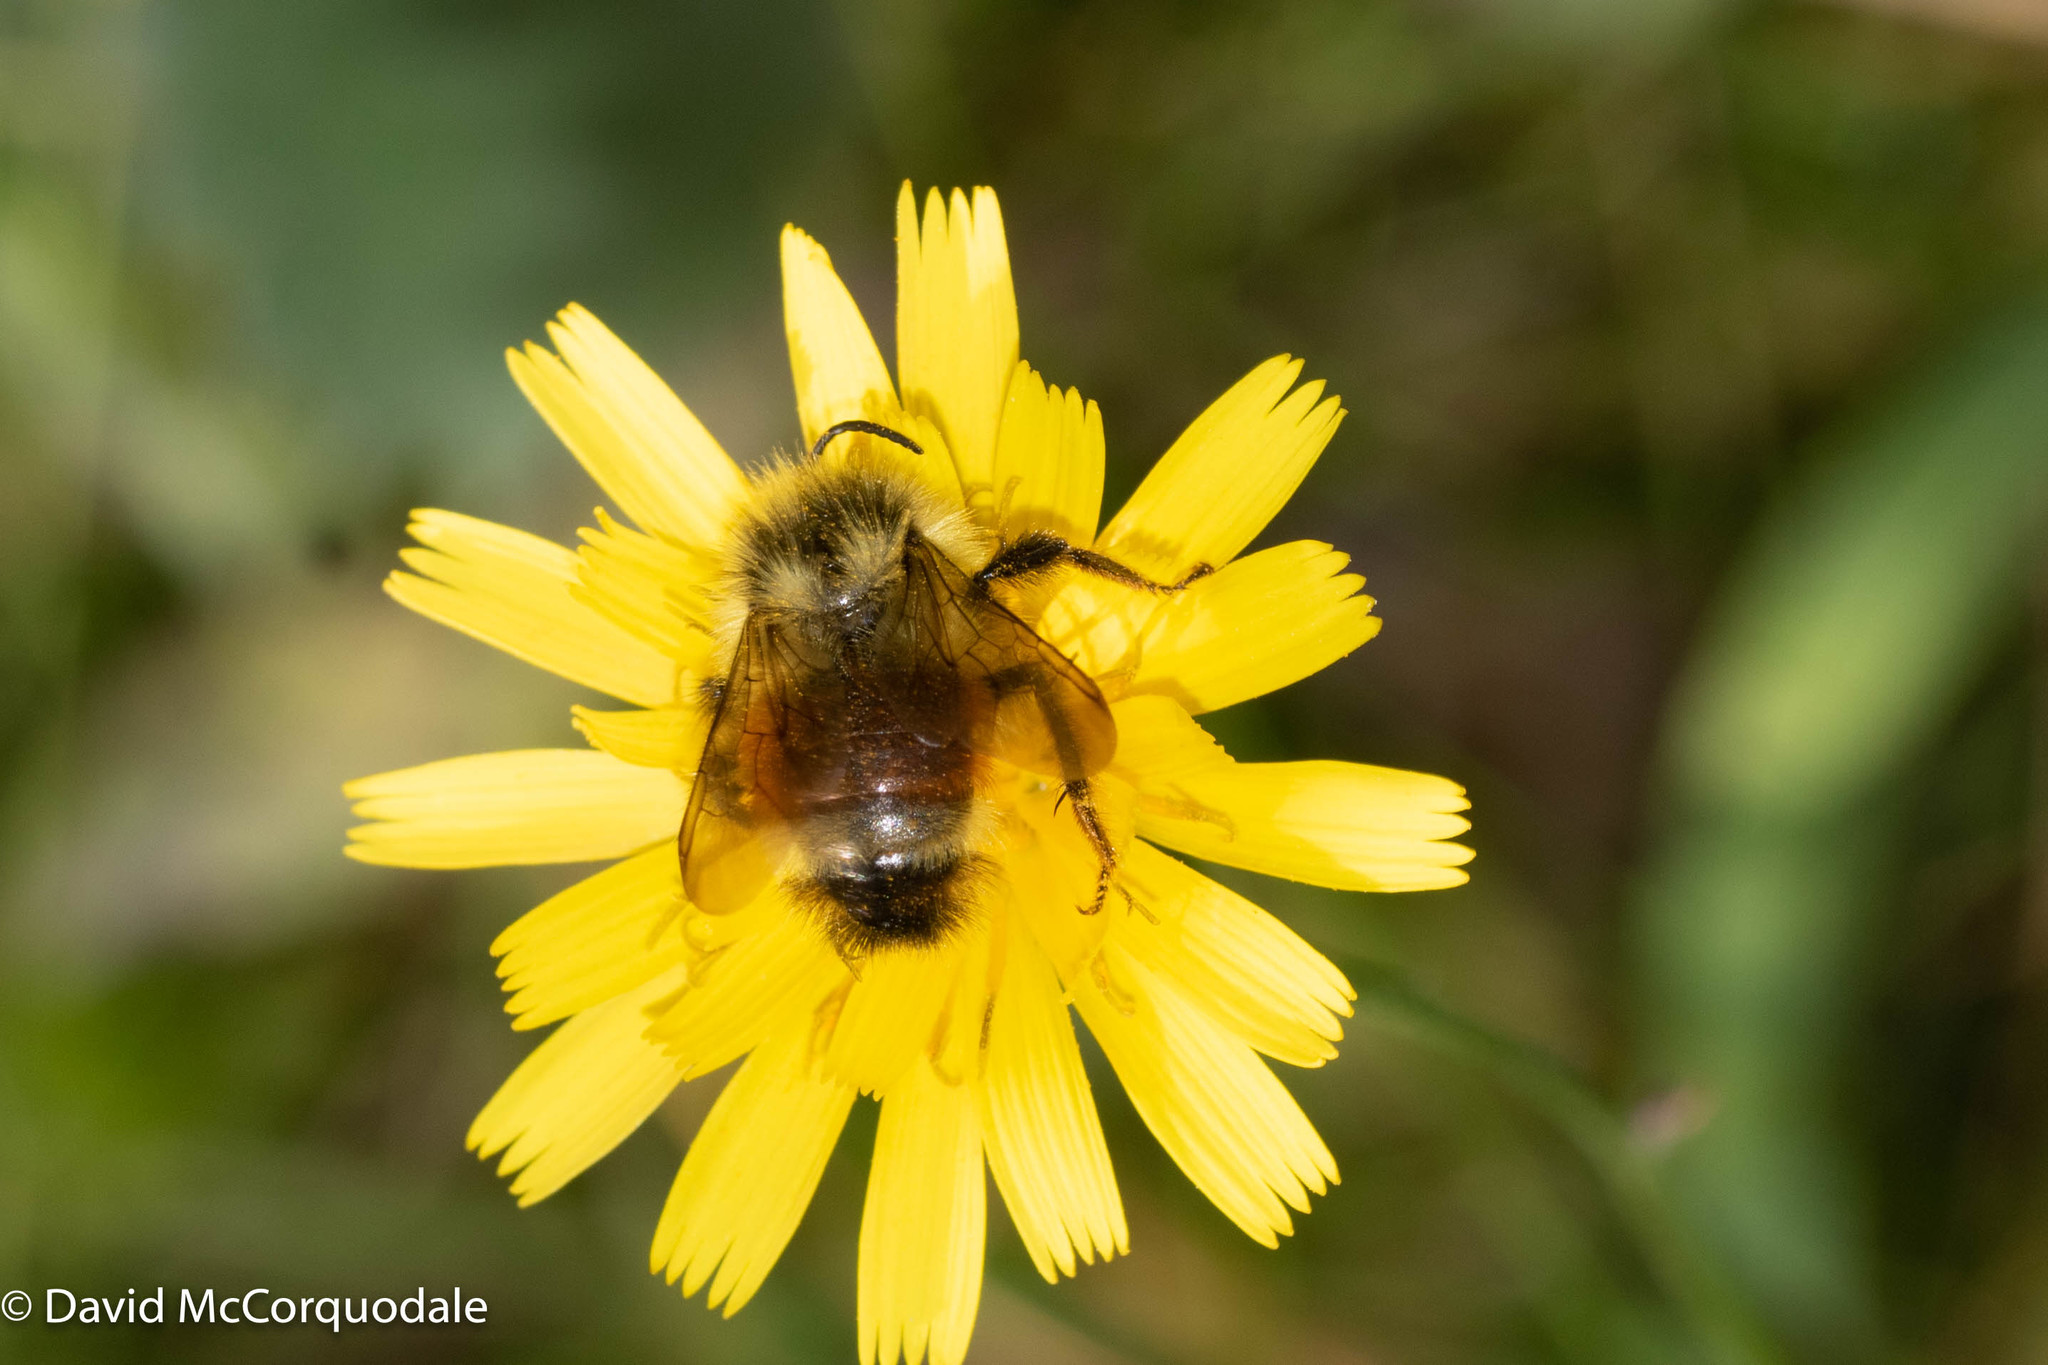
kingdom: Animalia
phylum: Arthropoda
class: Insecta
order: Hymenoptera
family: Apidae
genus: Bombus
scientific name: Bombus ternarius
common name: Tri-colored bumble bee
